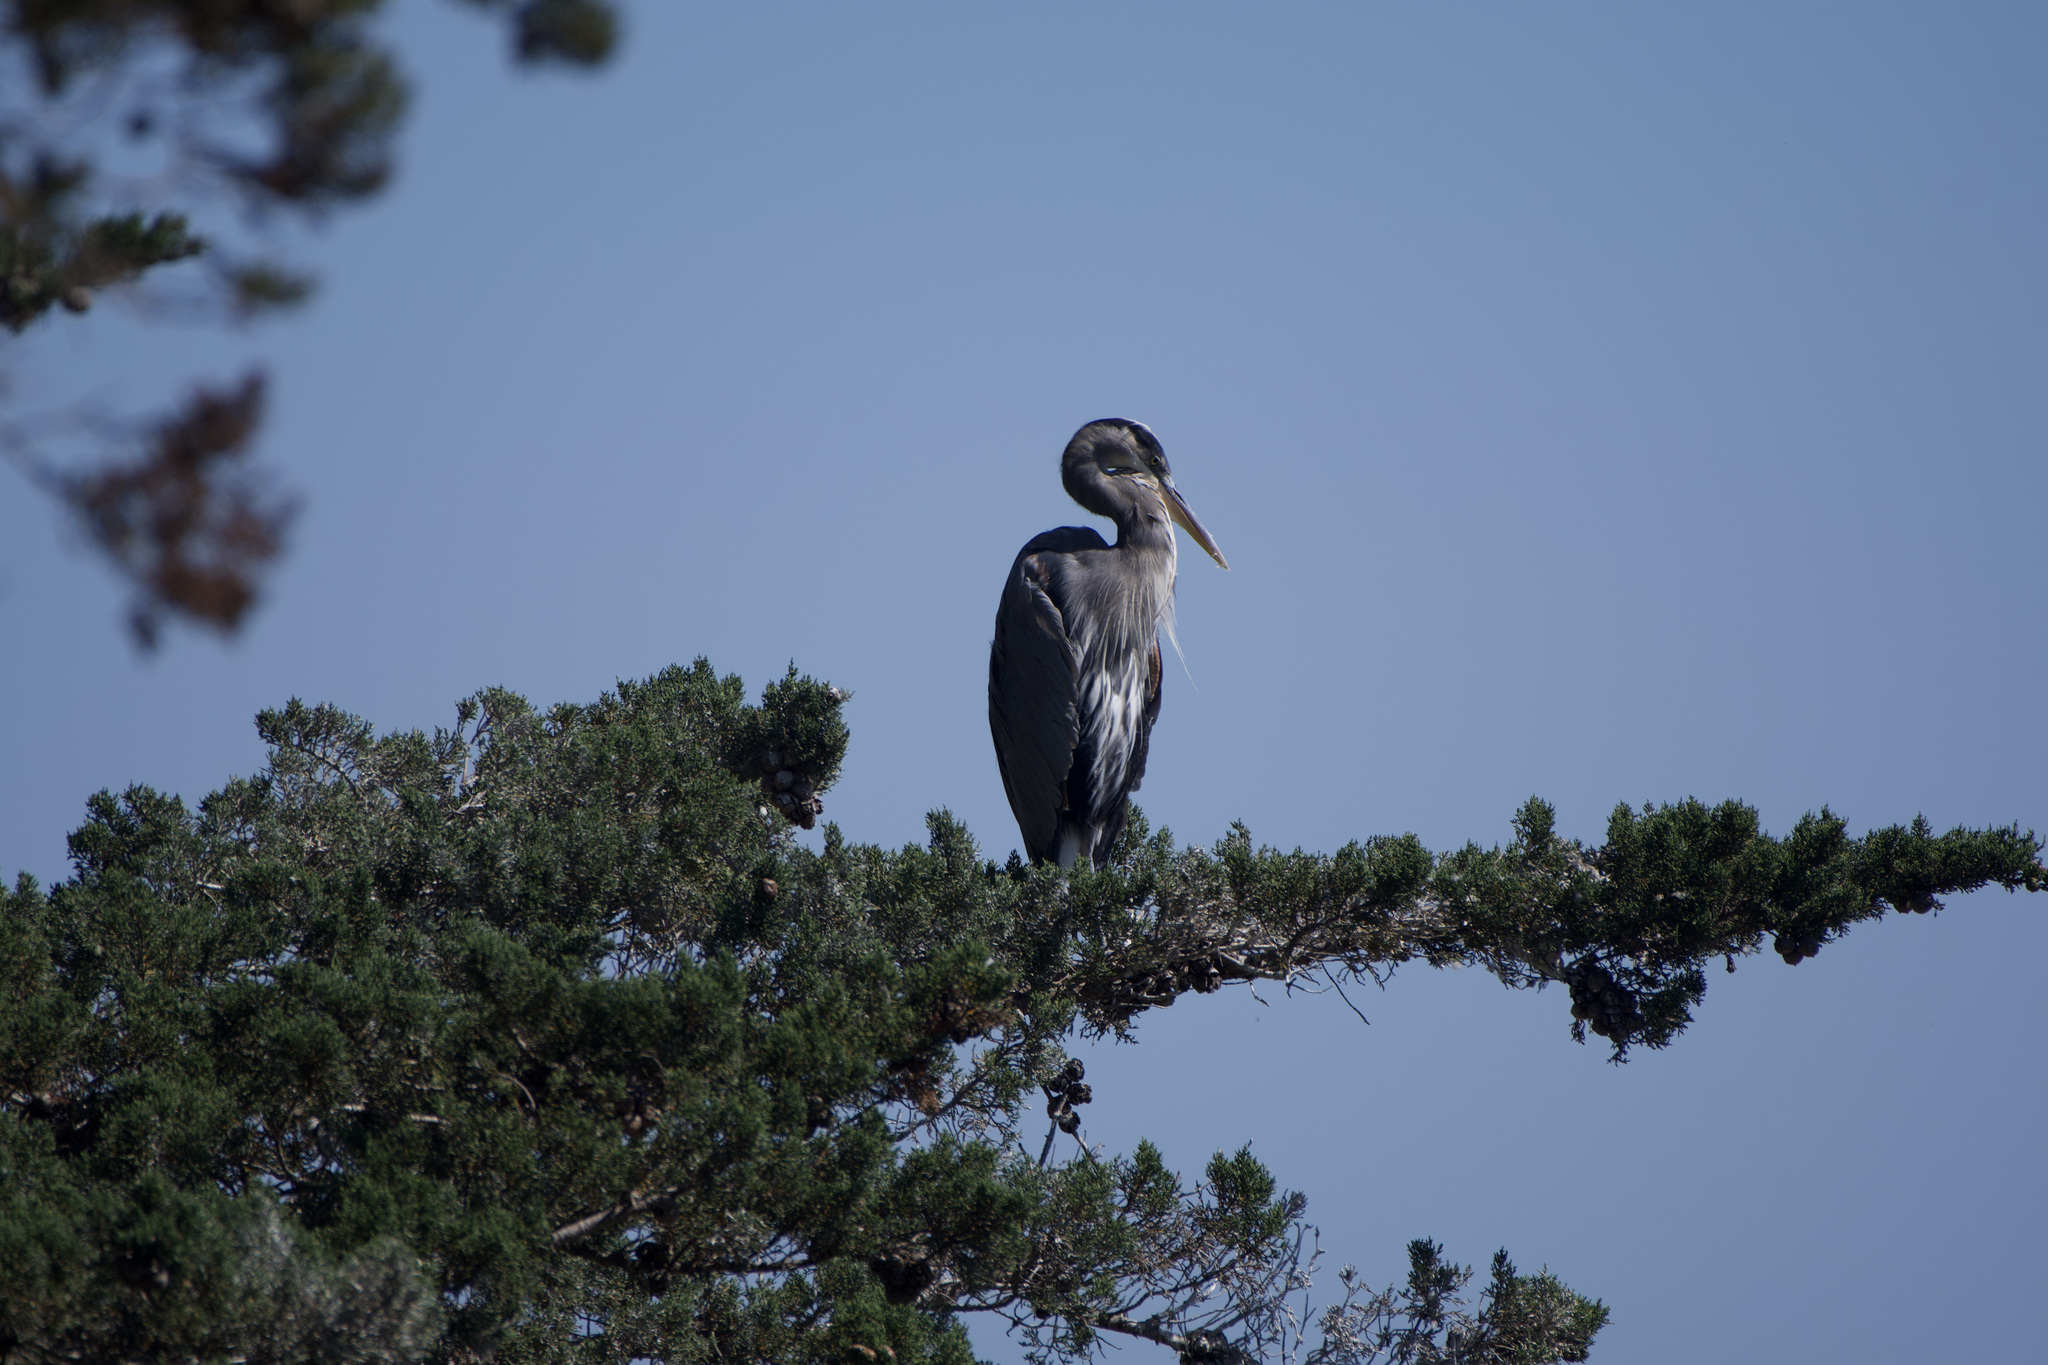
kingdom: Animalia
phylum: Chordata
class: Aves
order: Pelecaniformes
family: Ardeidae
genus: Ardea
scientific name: Ardea herodias
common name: Great blue heron
